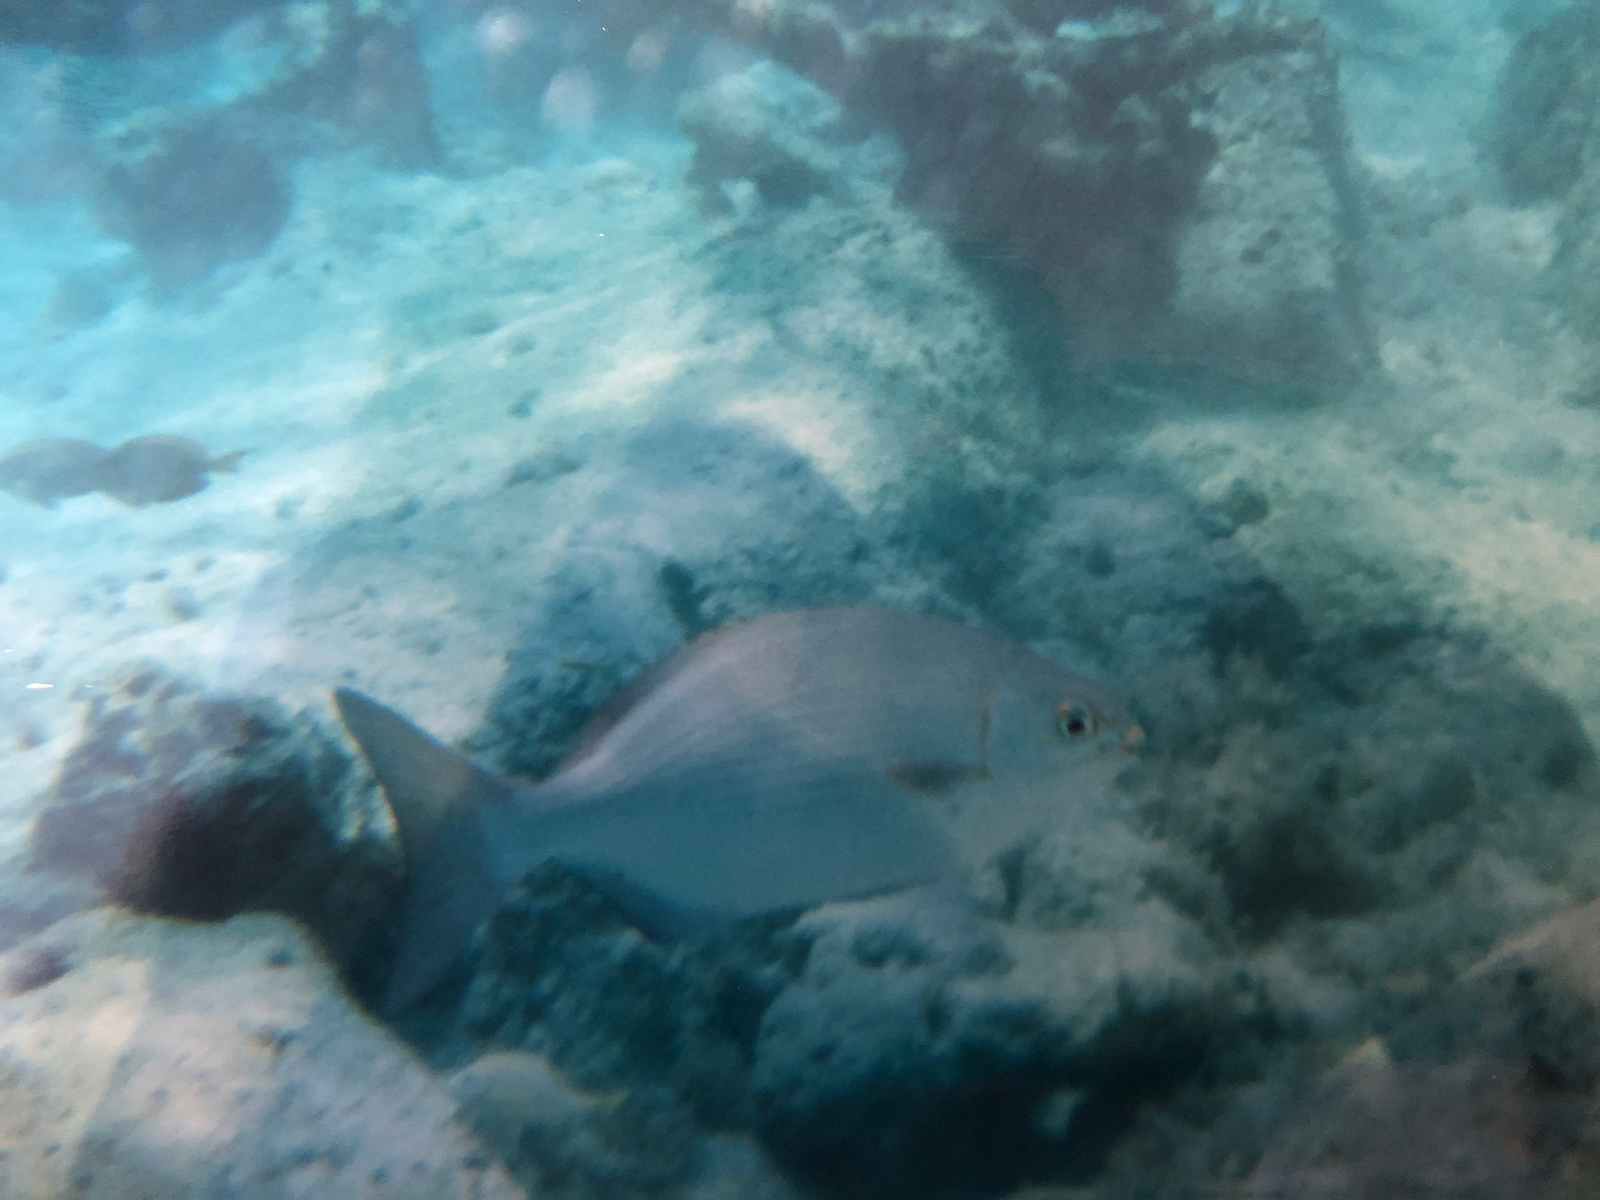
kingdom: Animalia
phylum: Chordata
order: Perciformes
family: Kyphosidae
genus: Kyphosus
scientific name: Kyphosus
